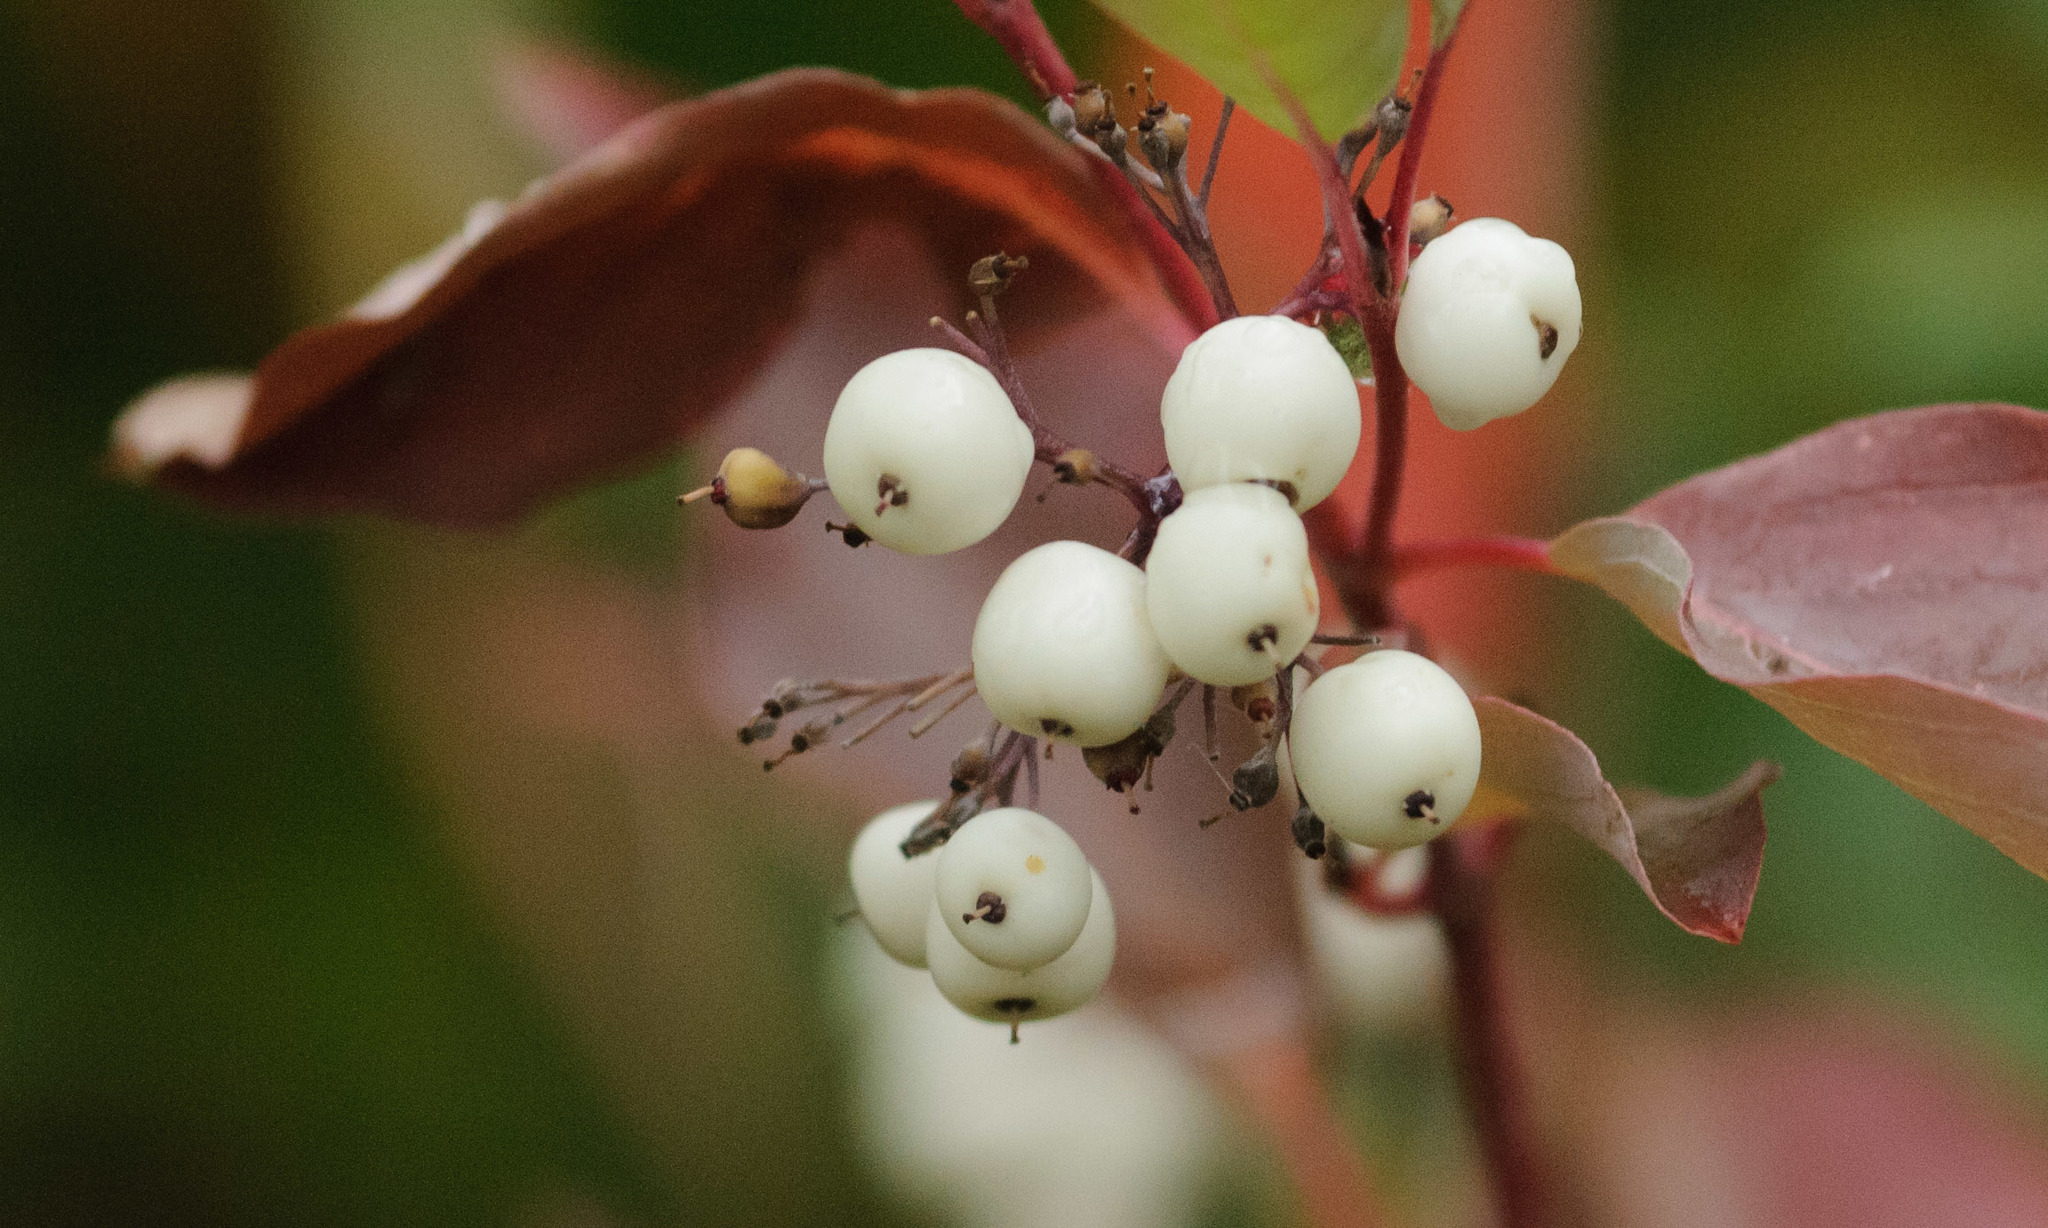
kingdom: Plantae
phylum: Tracheophyta
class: Magnoliopsida
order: Cornales
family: Cornaceae
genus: Cornus
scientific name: Cornus sericea
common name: Red-osier dogwood
